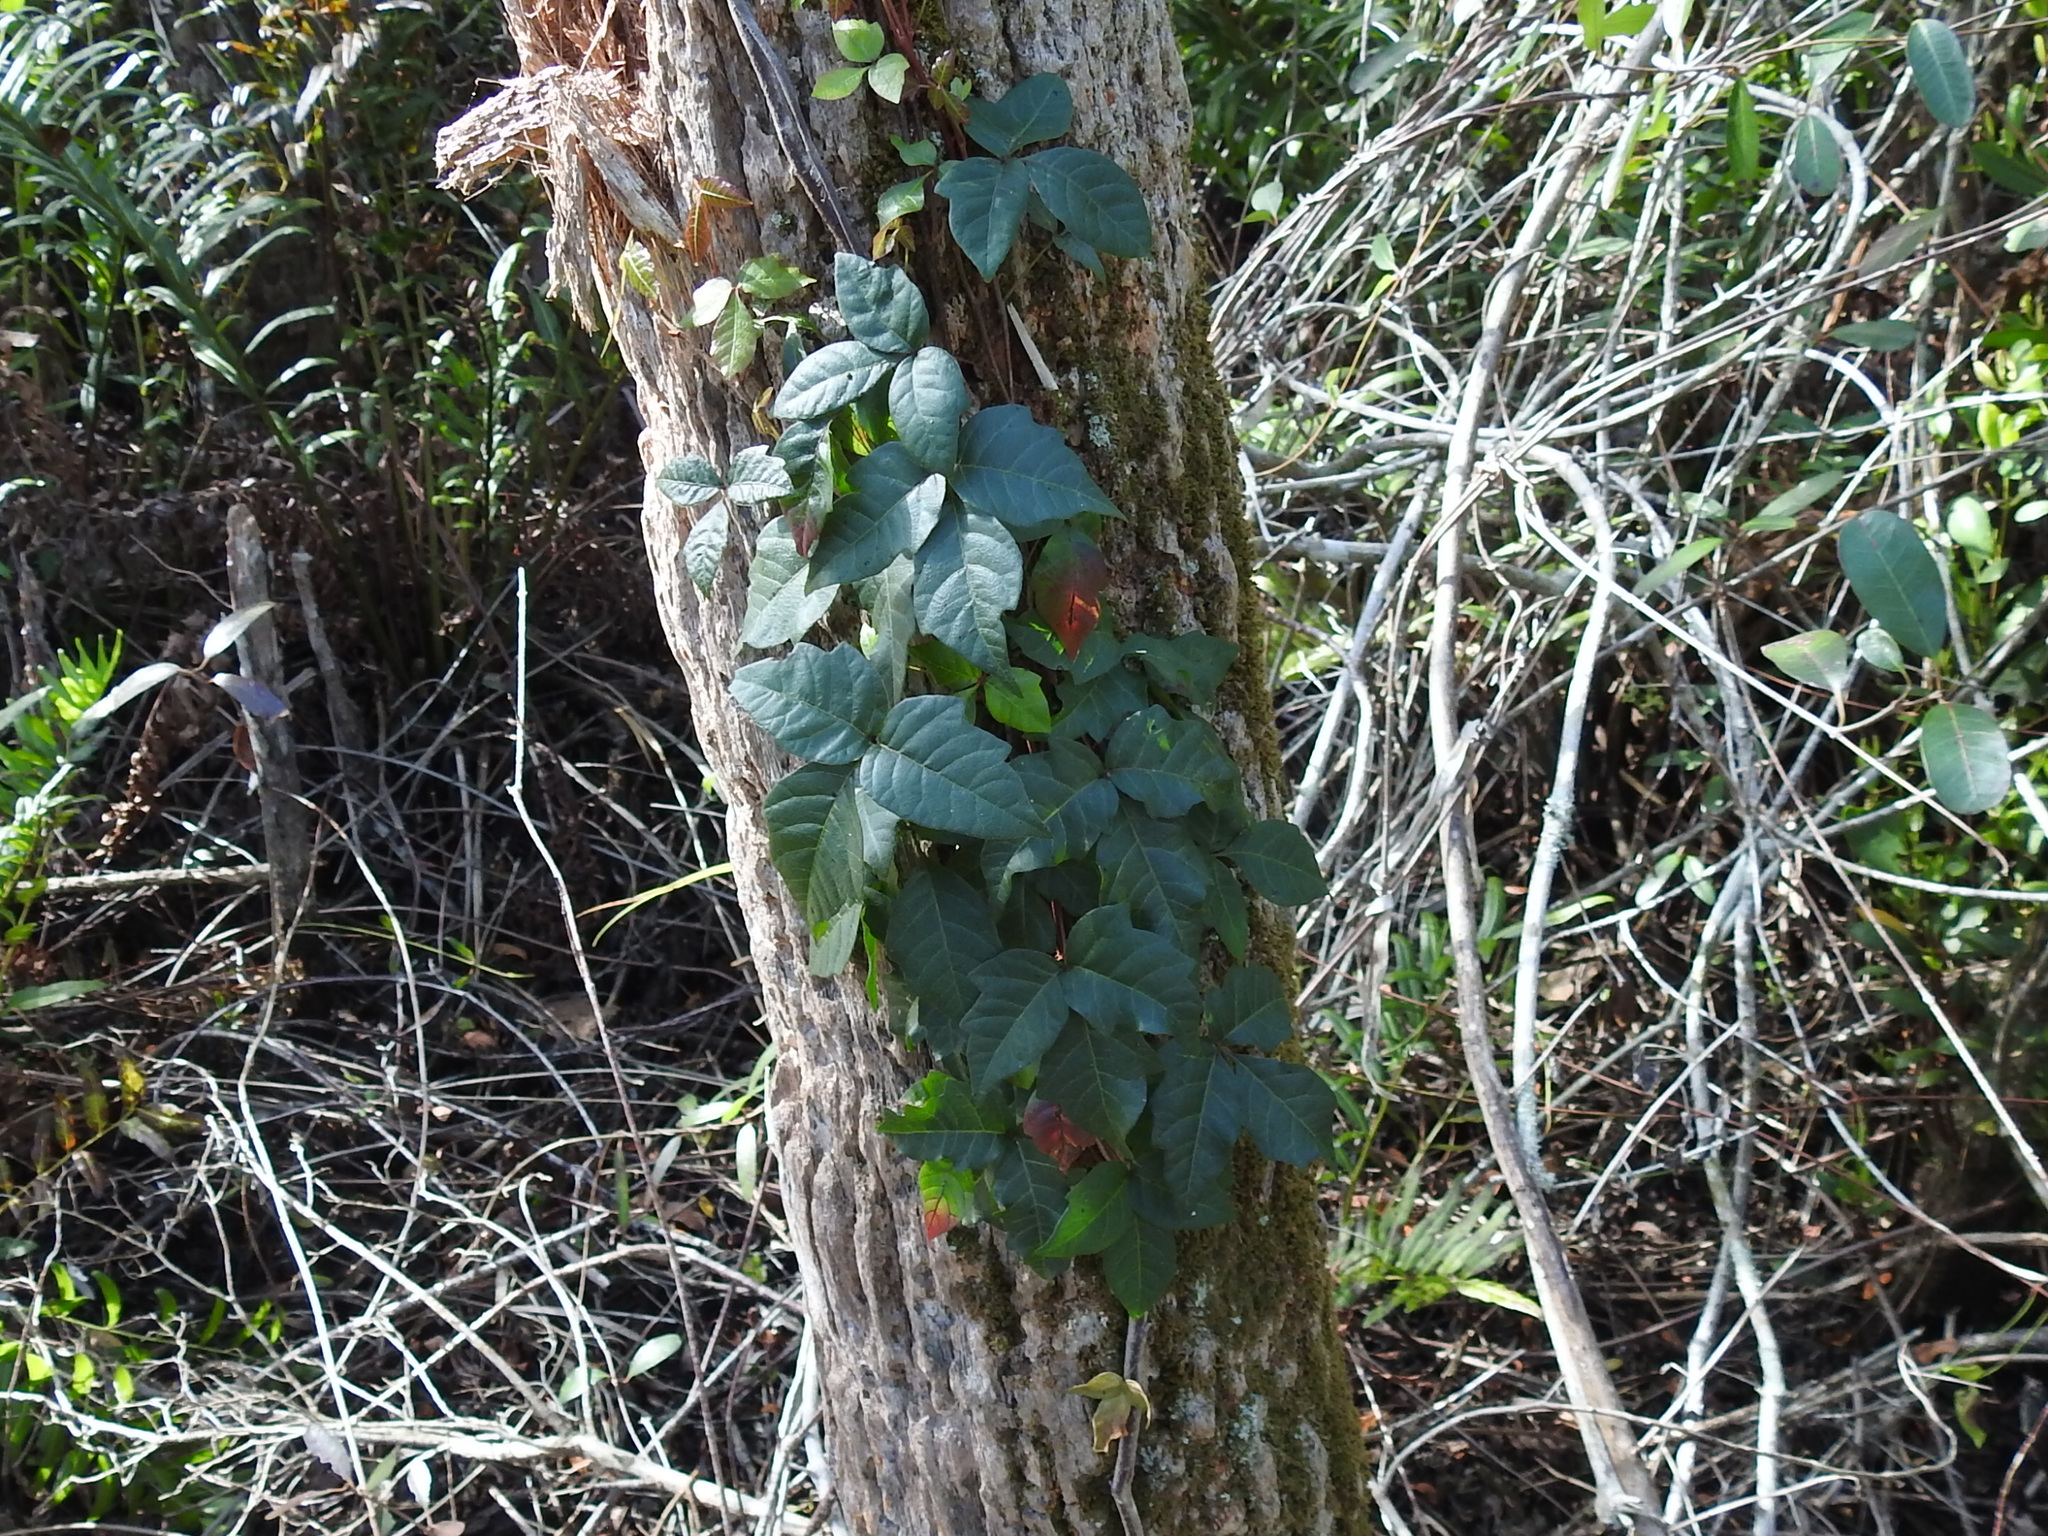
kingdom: Plantae
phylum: Tracheophyta
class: Magnoliopsida
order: Sapindales
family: Anacardiaceae
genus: Toxicodendron
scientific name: Toxicodendron radicans
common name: Poison ivy
